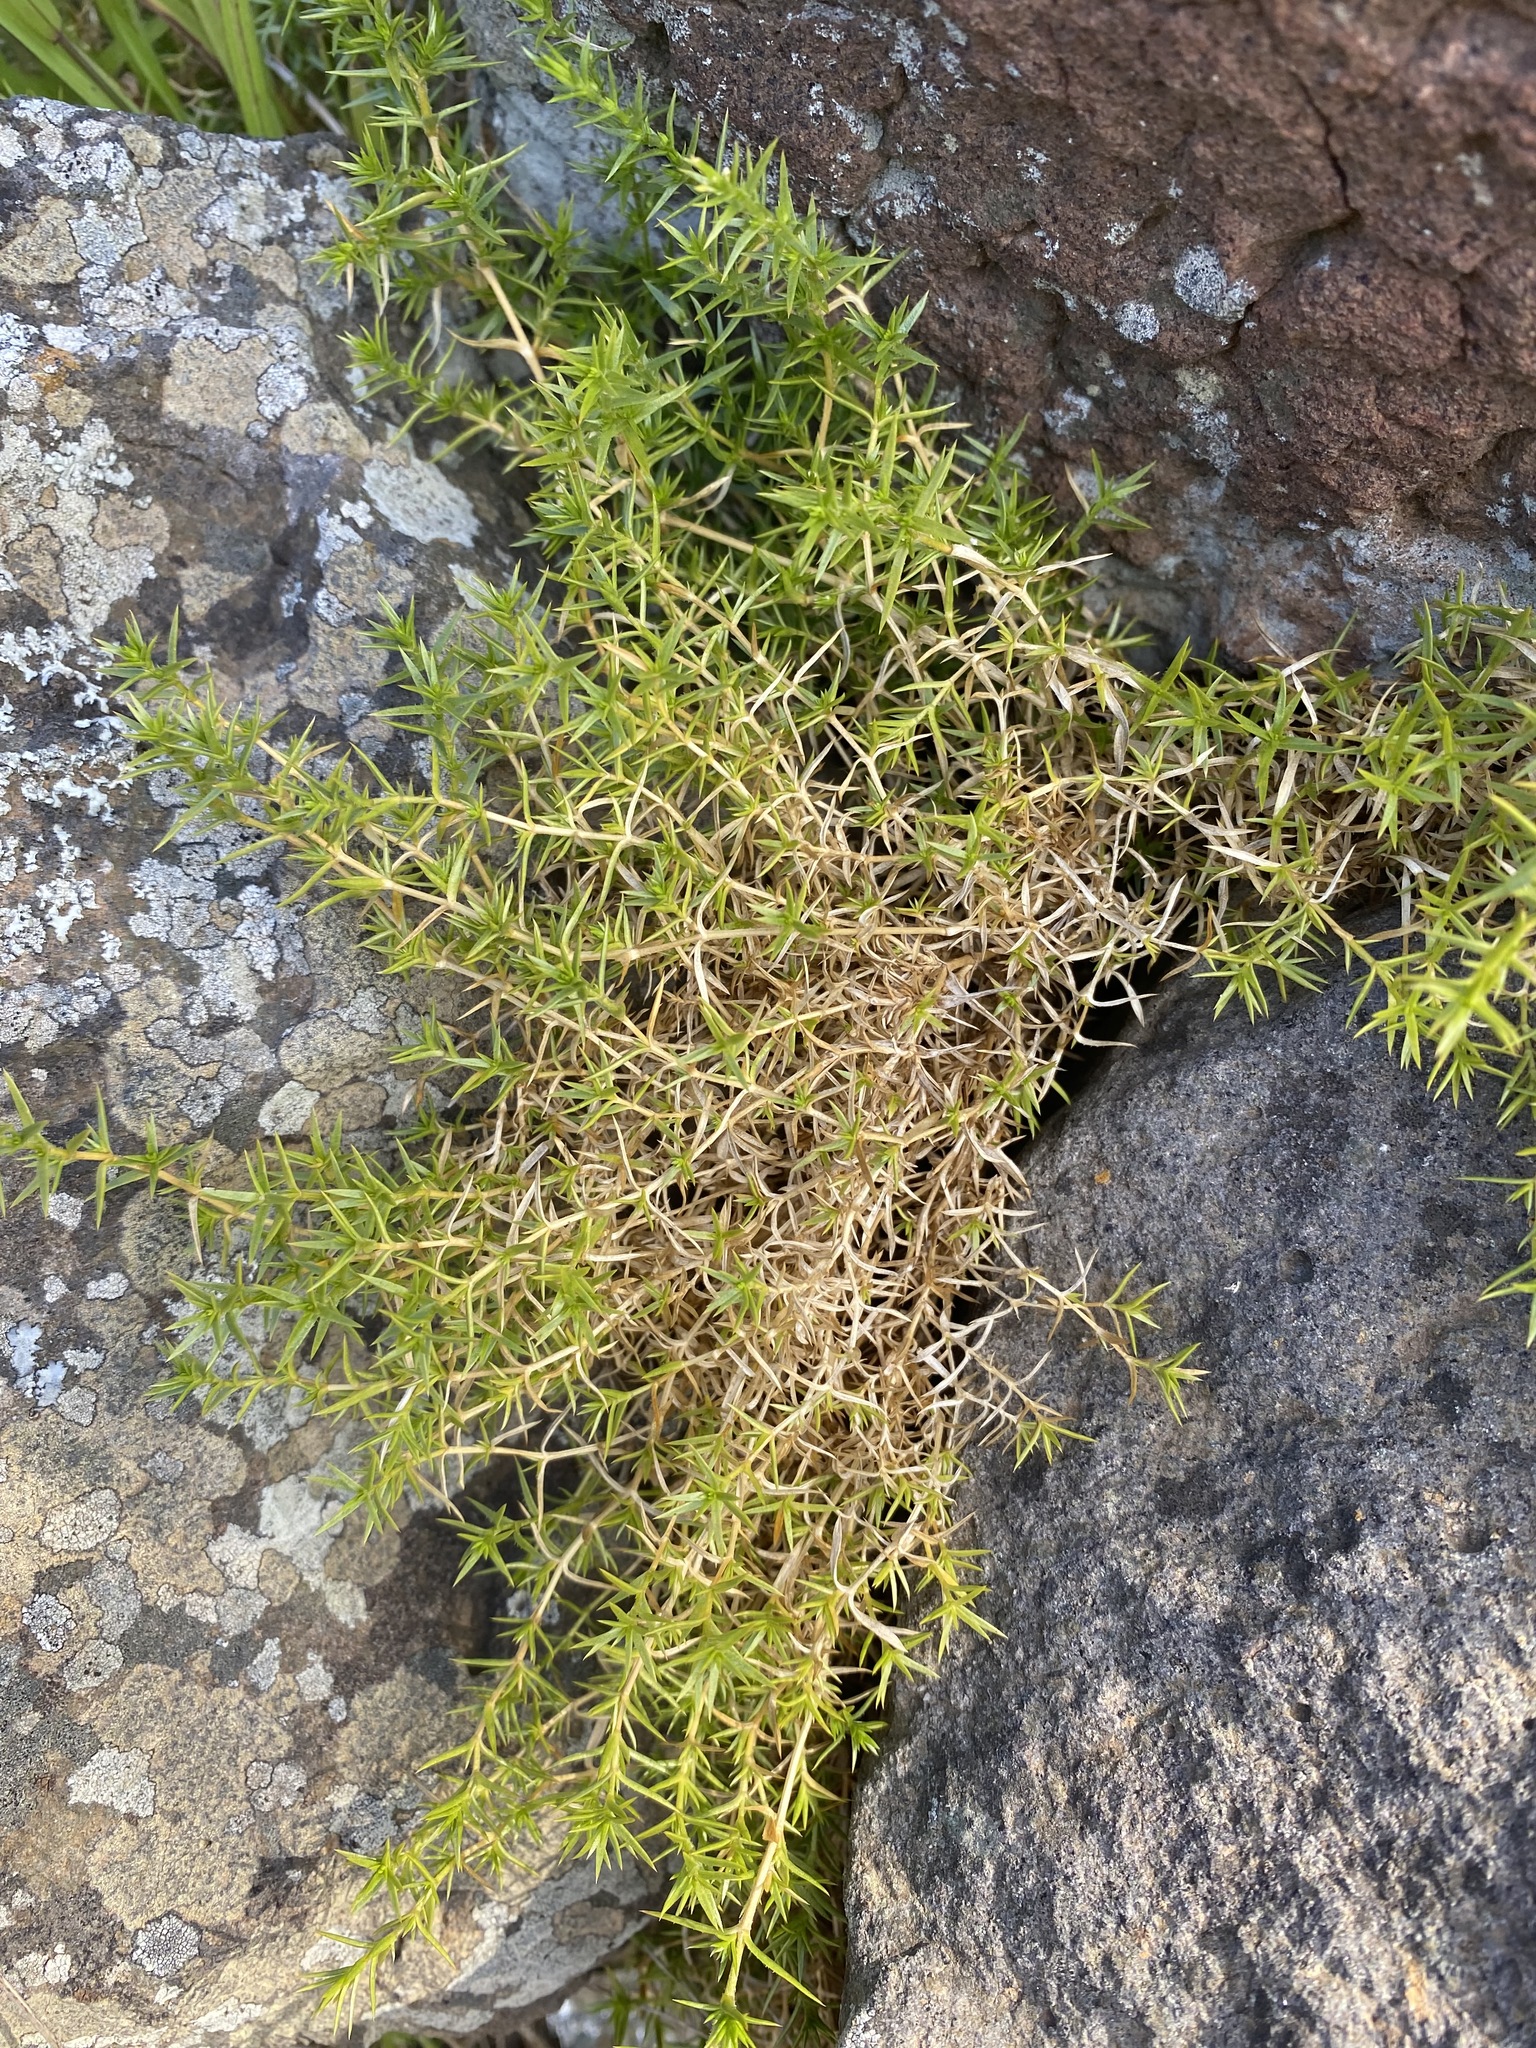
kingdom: Plantae
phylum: Tracheophyta
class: Magnoliopsida
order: Caryophyllales
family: Caryophyllaceae
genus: Stellaria
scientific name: Stellaria pungens
